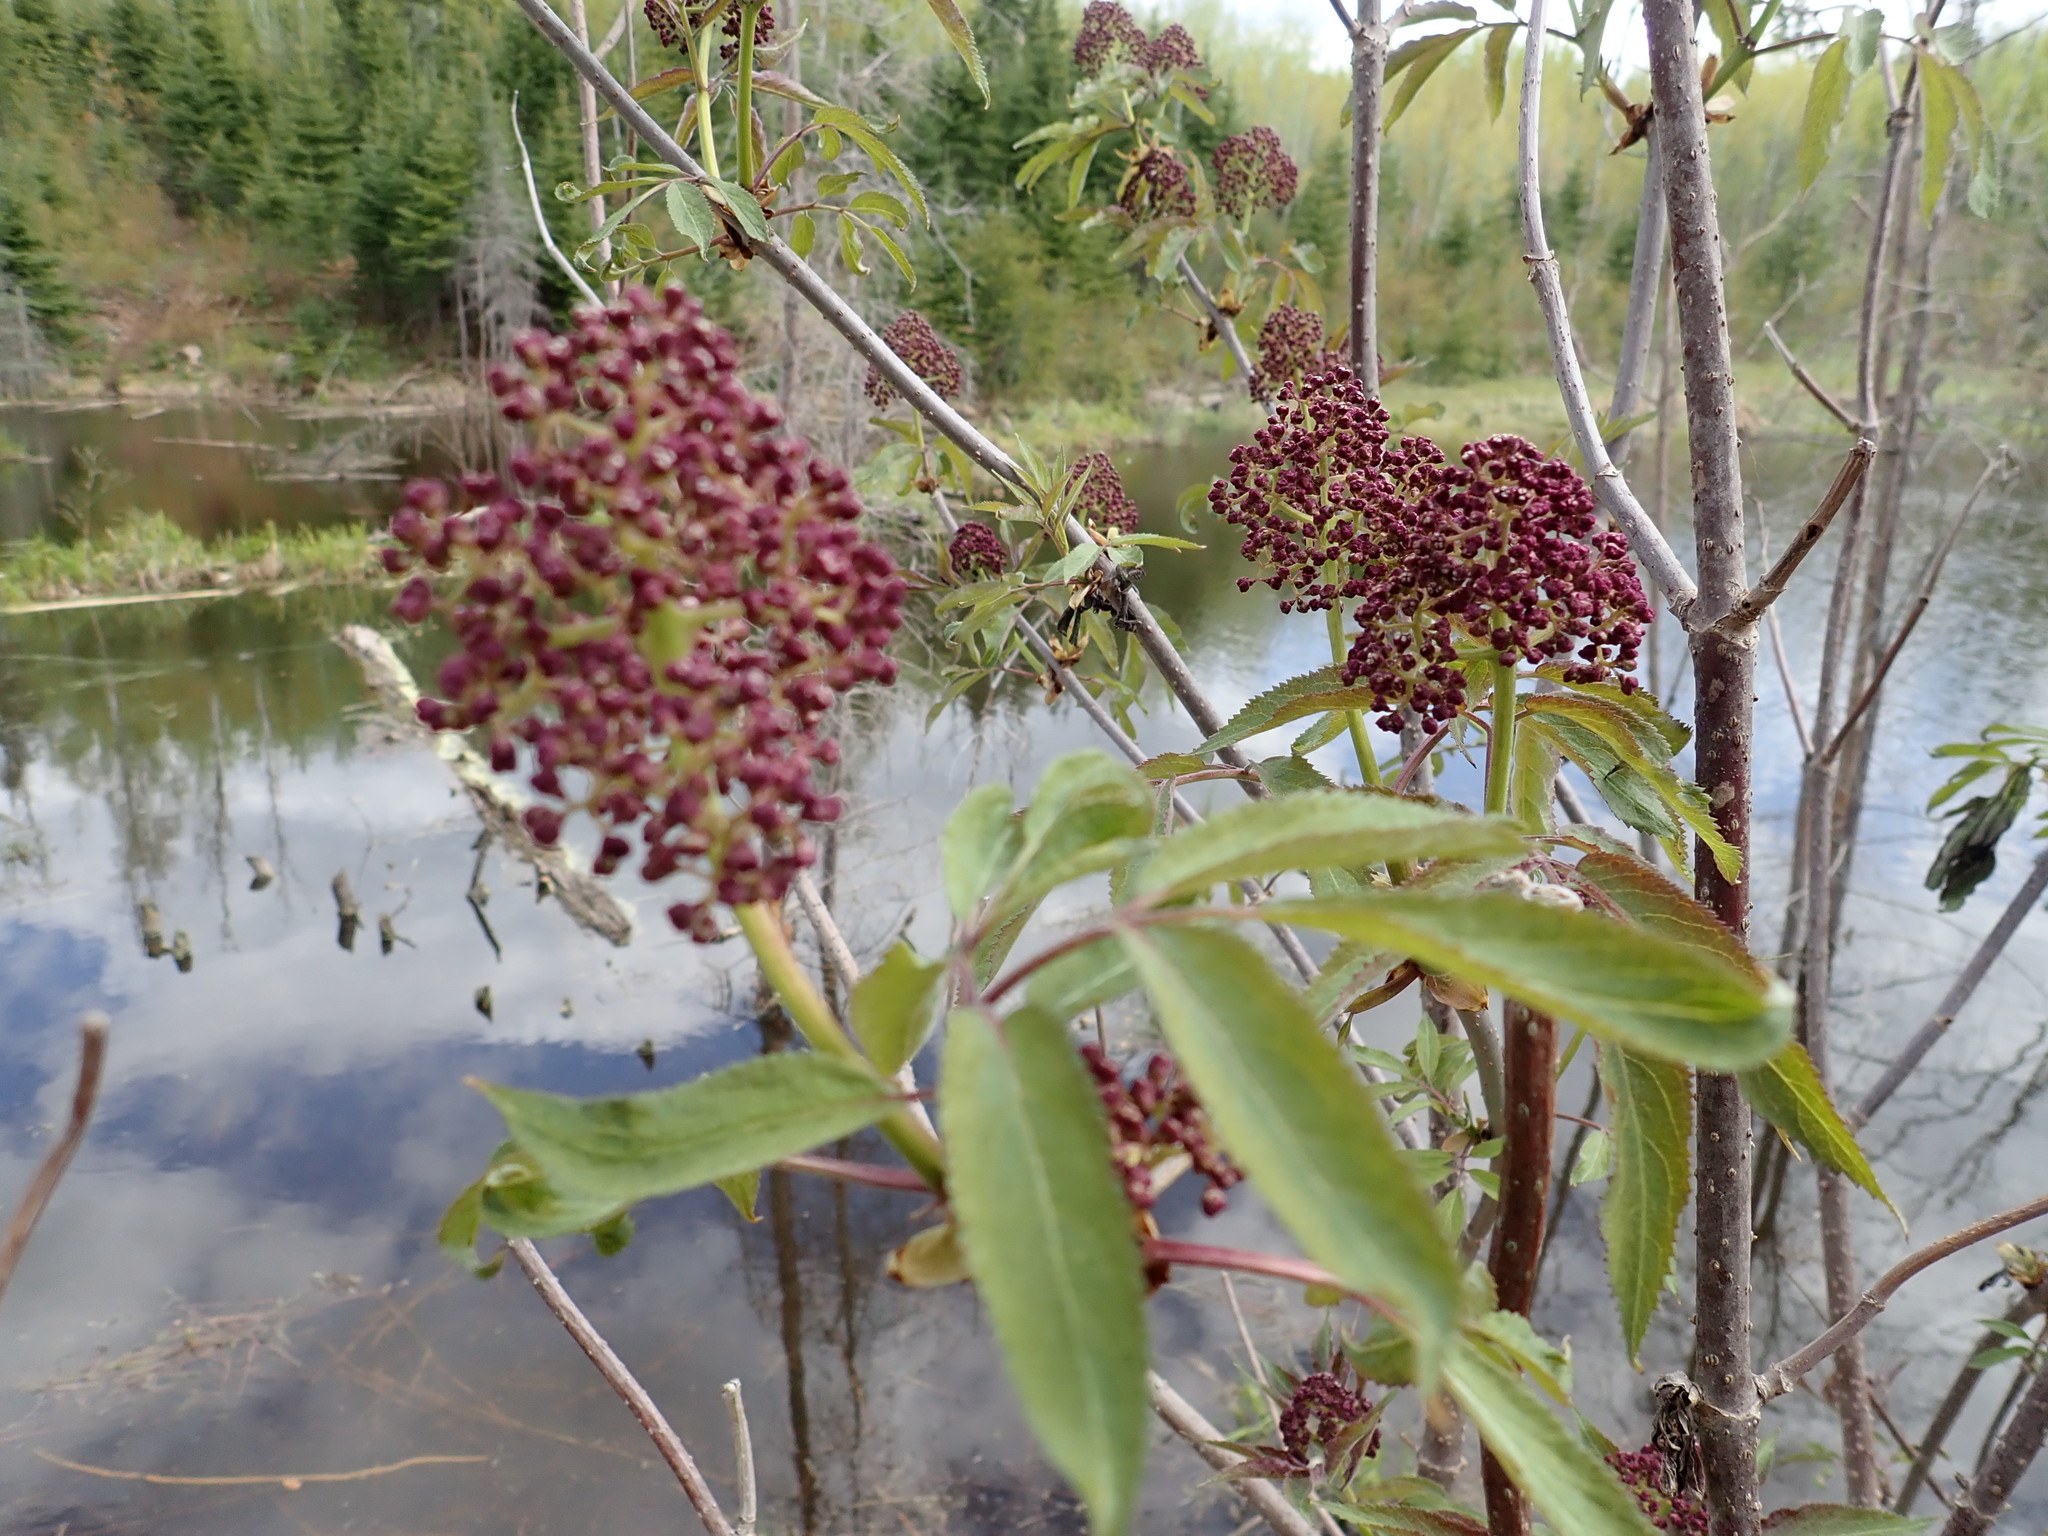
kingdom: Plantae
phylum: Tracheophyta
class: Magnoliopsida
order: Dipsacales
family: Viburnaceae
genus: Sambucus
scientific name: Sambucus racemosa
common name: Red-berried elder
